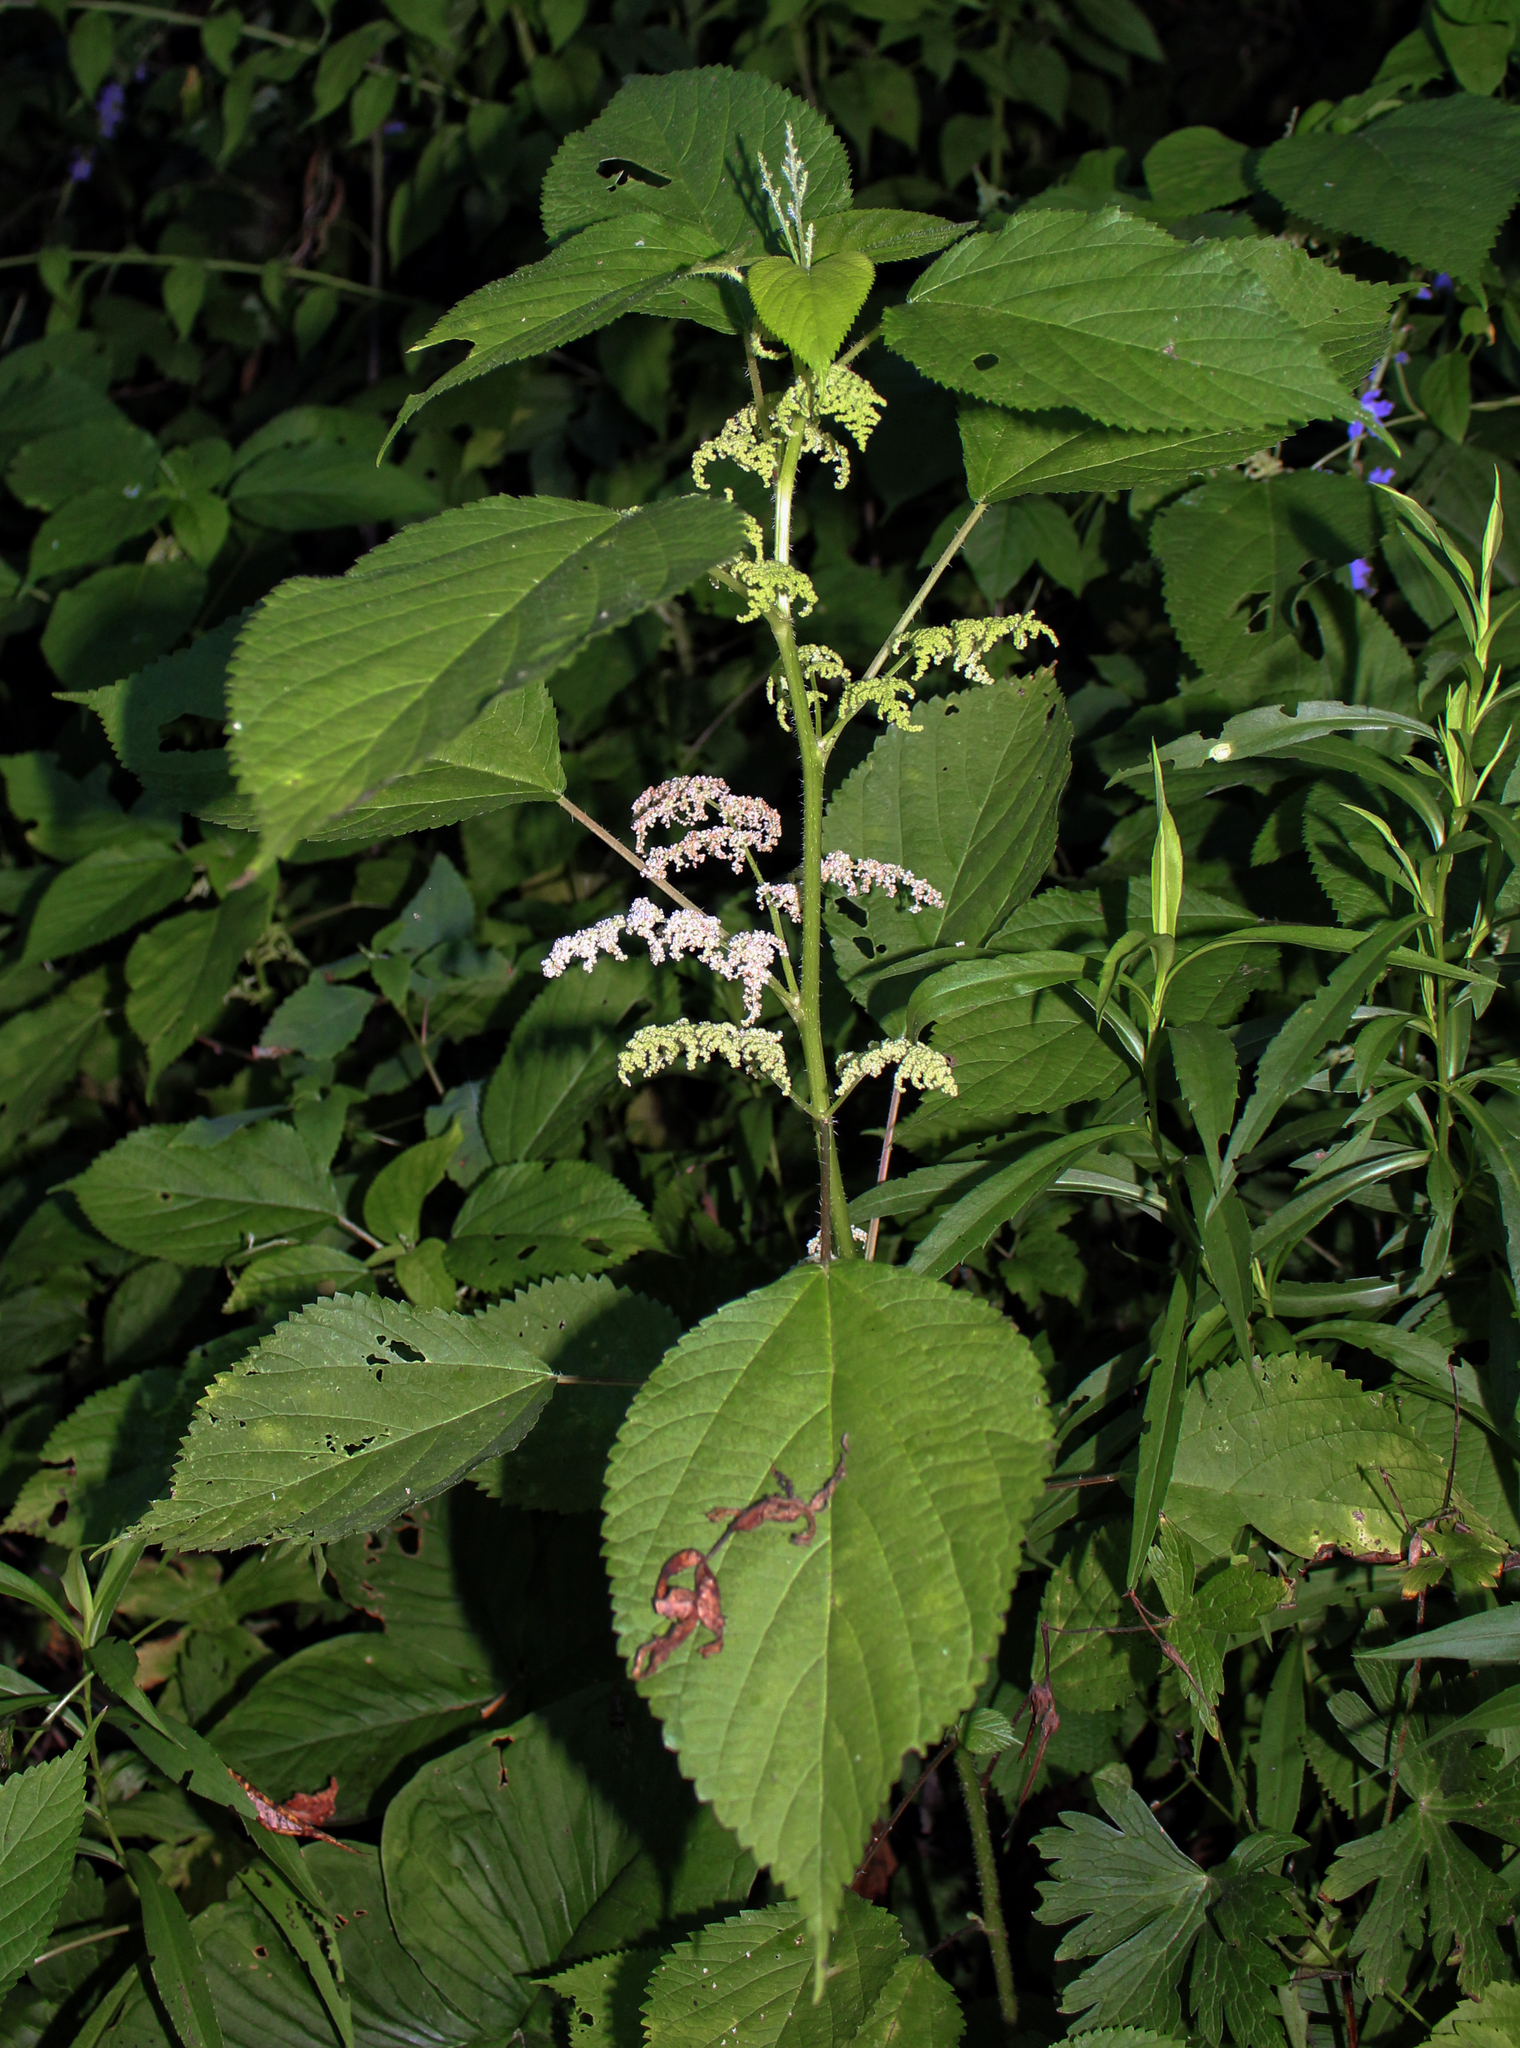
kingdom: Plantae
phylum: Tracheophyta
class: Magnoliopsida
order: Rosales
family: Urticaceae
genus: Laportea
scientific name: Laportea canadensis
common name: Canada nettle
